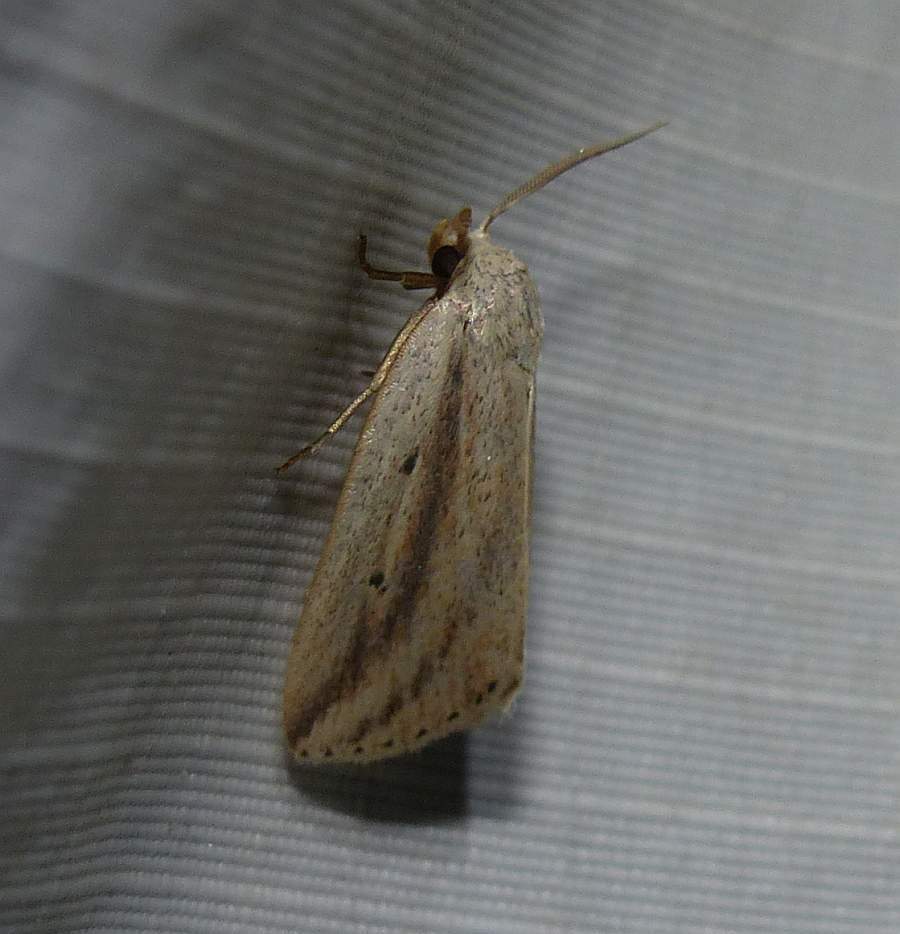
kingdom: Animalia
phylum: Arthropoda
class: Insecta
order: Lepidoptera
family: Noctuidae
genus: Amolita
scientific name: Amolita fessa
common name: Feeble grass moth
